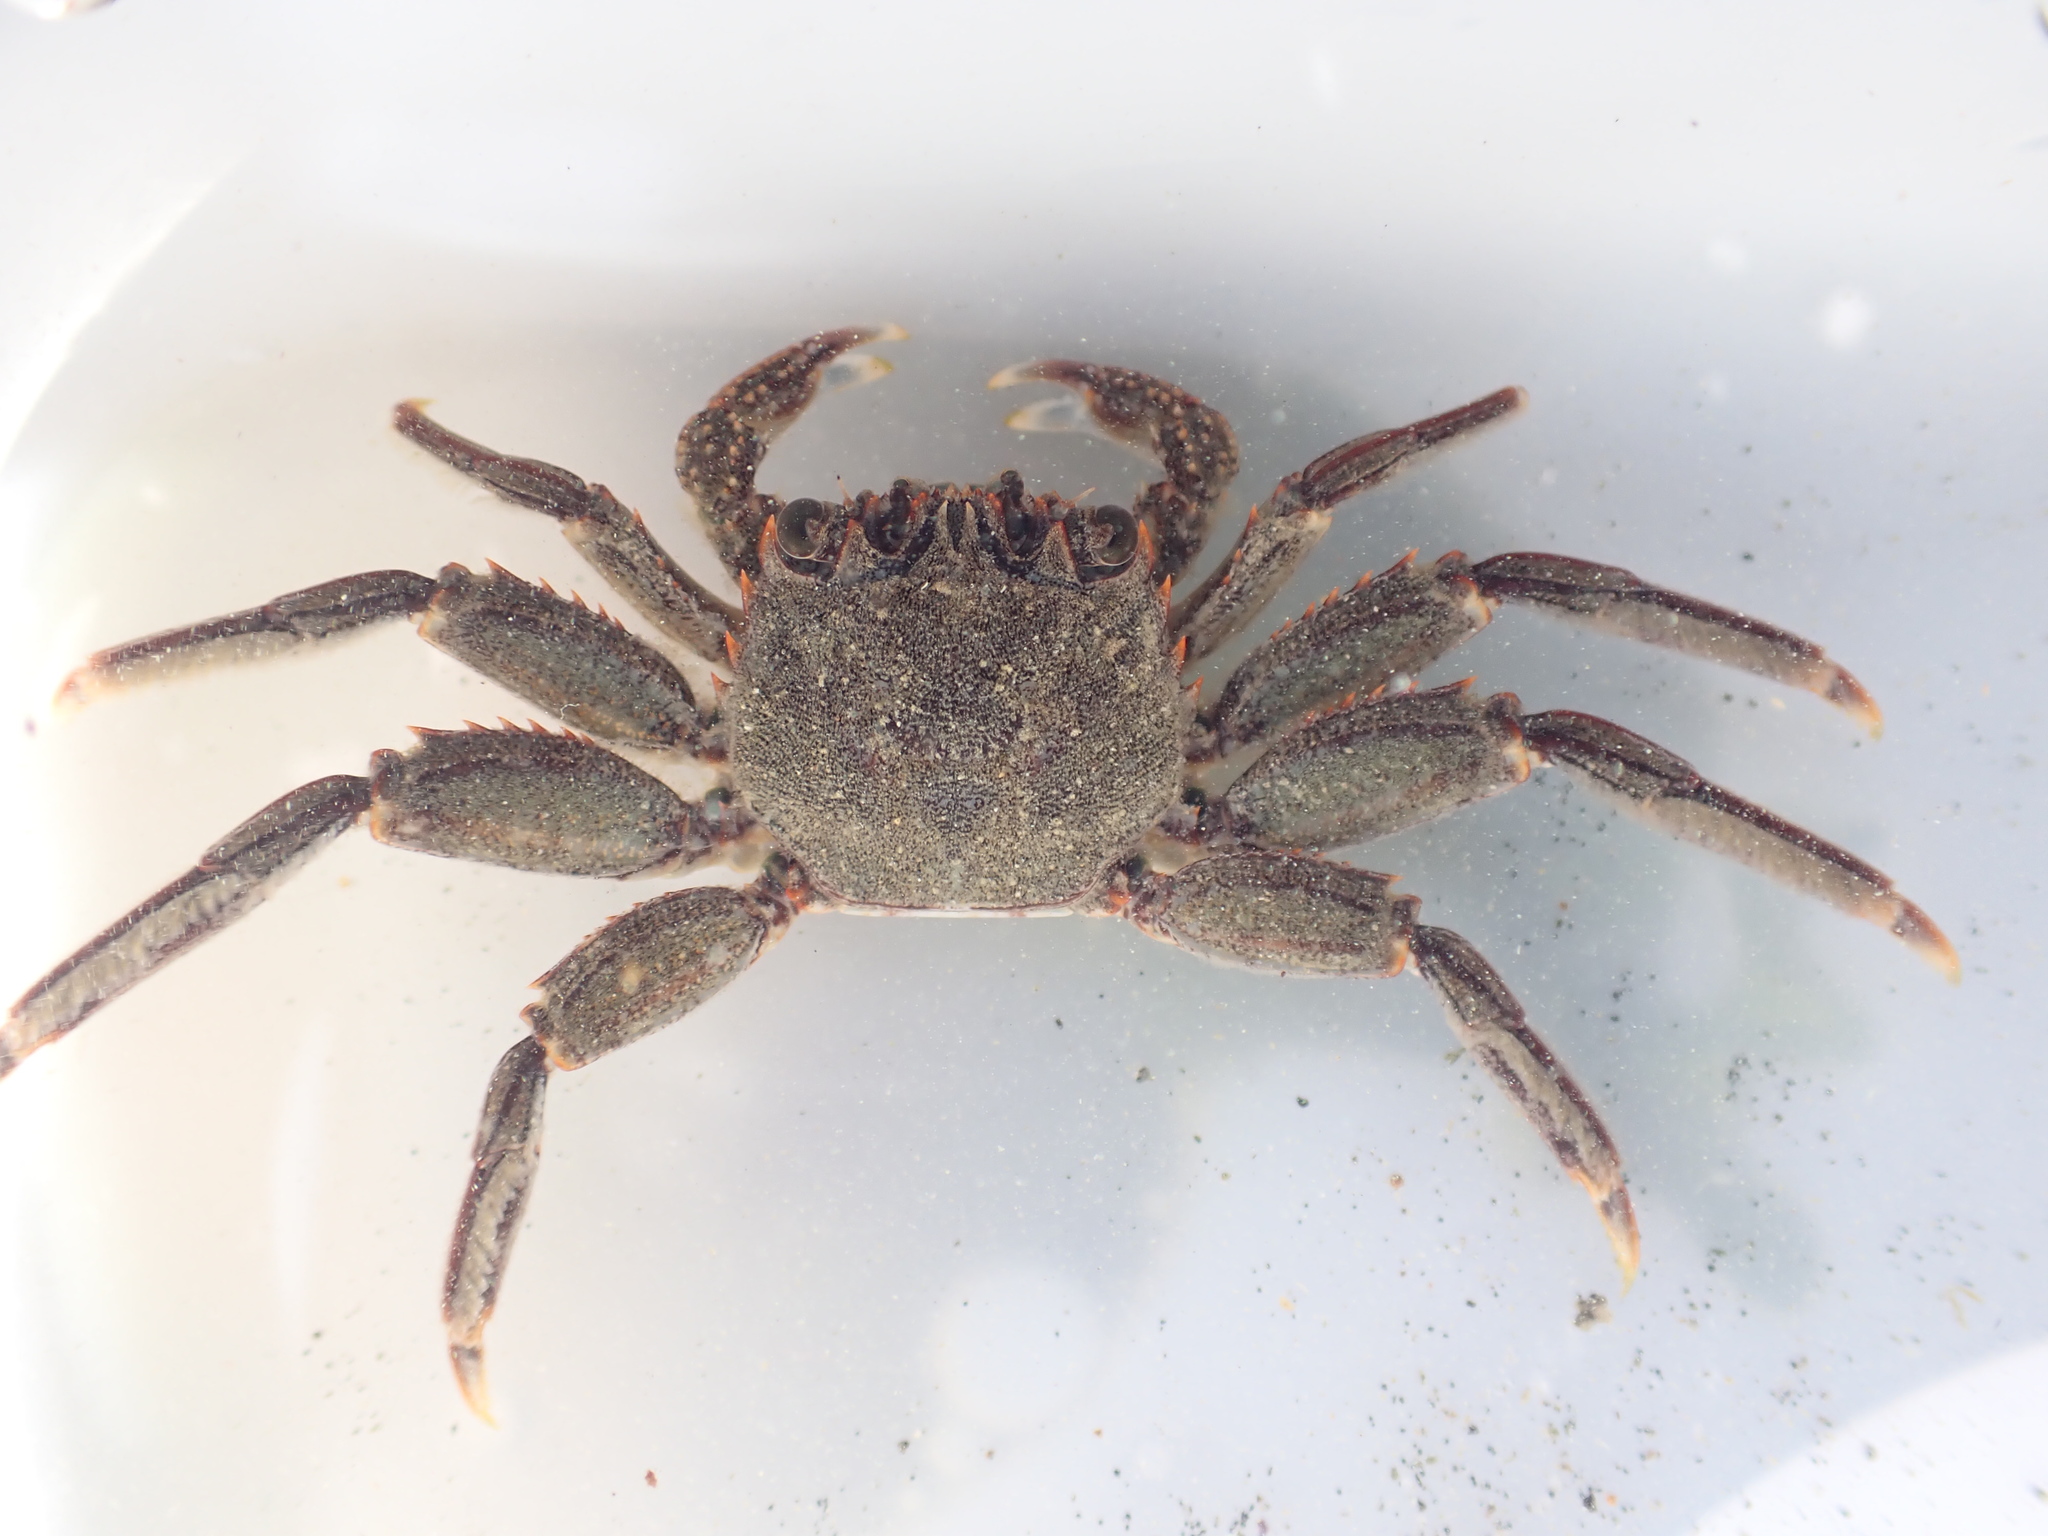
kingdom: Animalia
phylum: Arthropoda
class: Malacostraca
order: Decapoda
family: Plagusiidae
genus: Guinusia
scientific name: Guinusia chabrus
